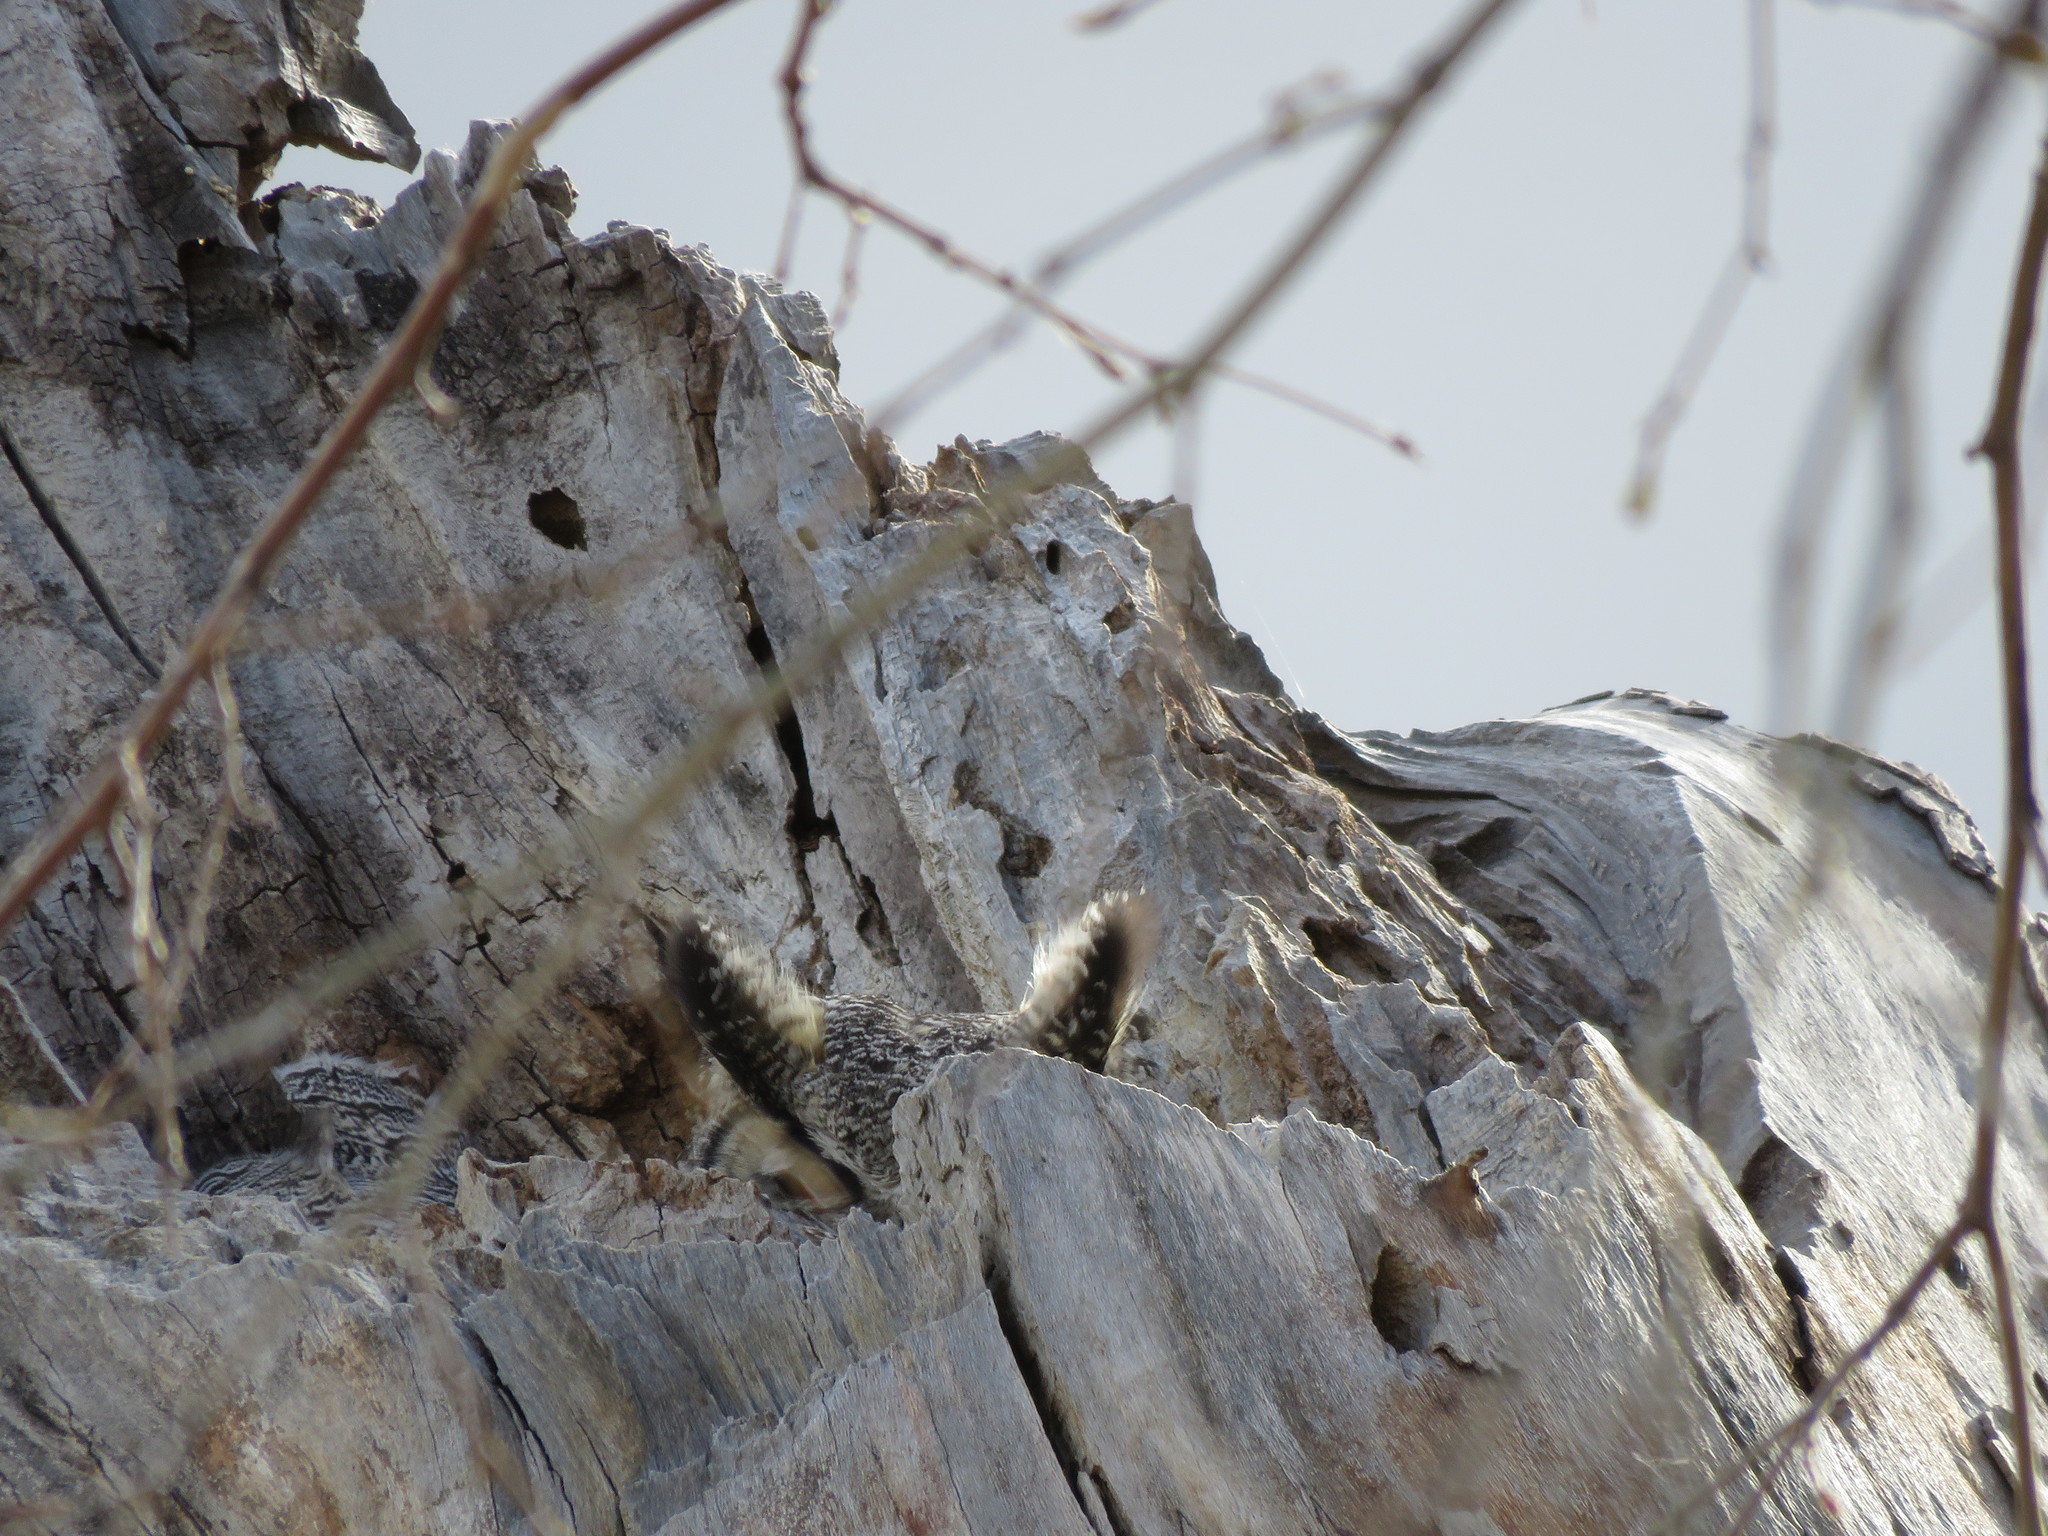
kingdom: Animalia
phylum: Chordata
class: Aves
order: Strigiformes
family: Strigidae
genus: Bubo
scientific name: Bubo virginianus
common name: Great horned owl
